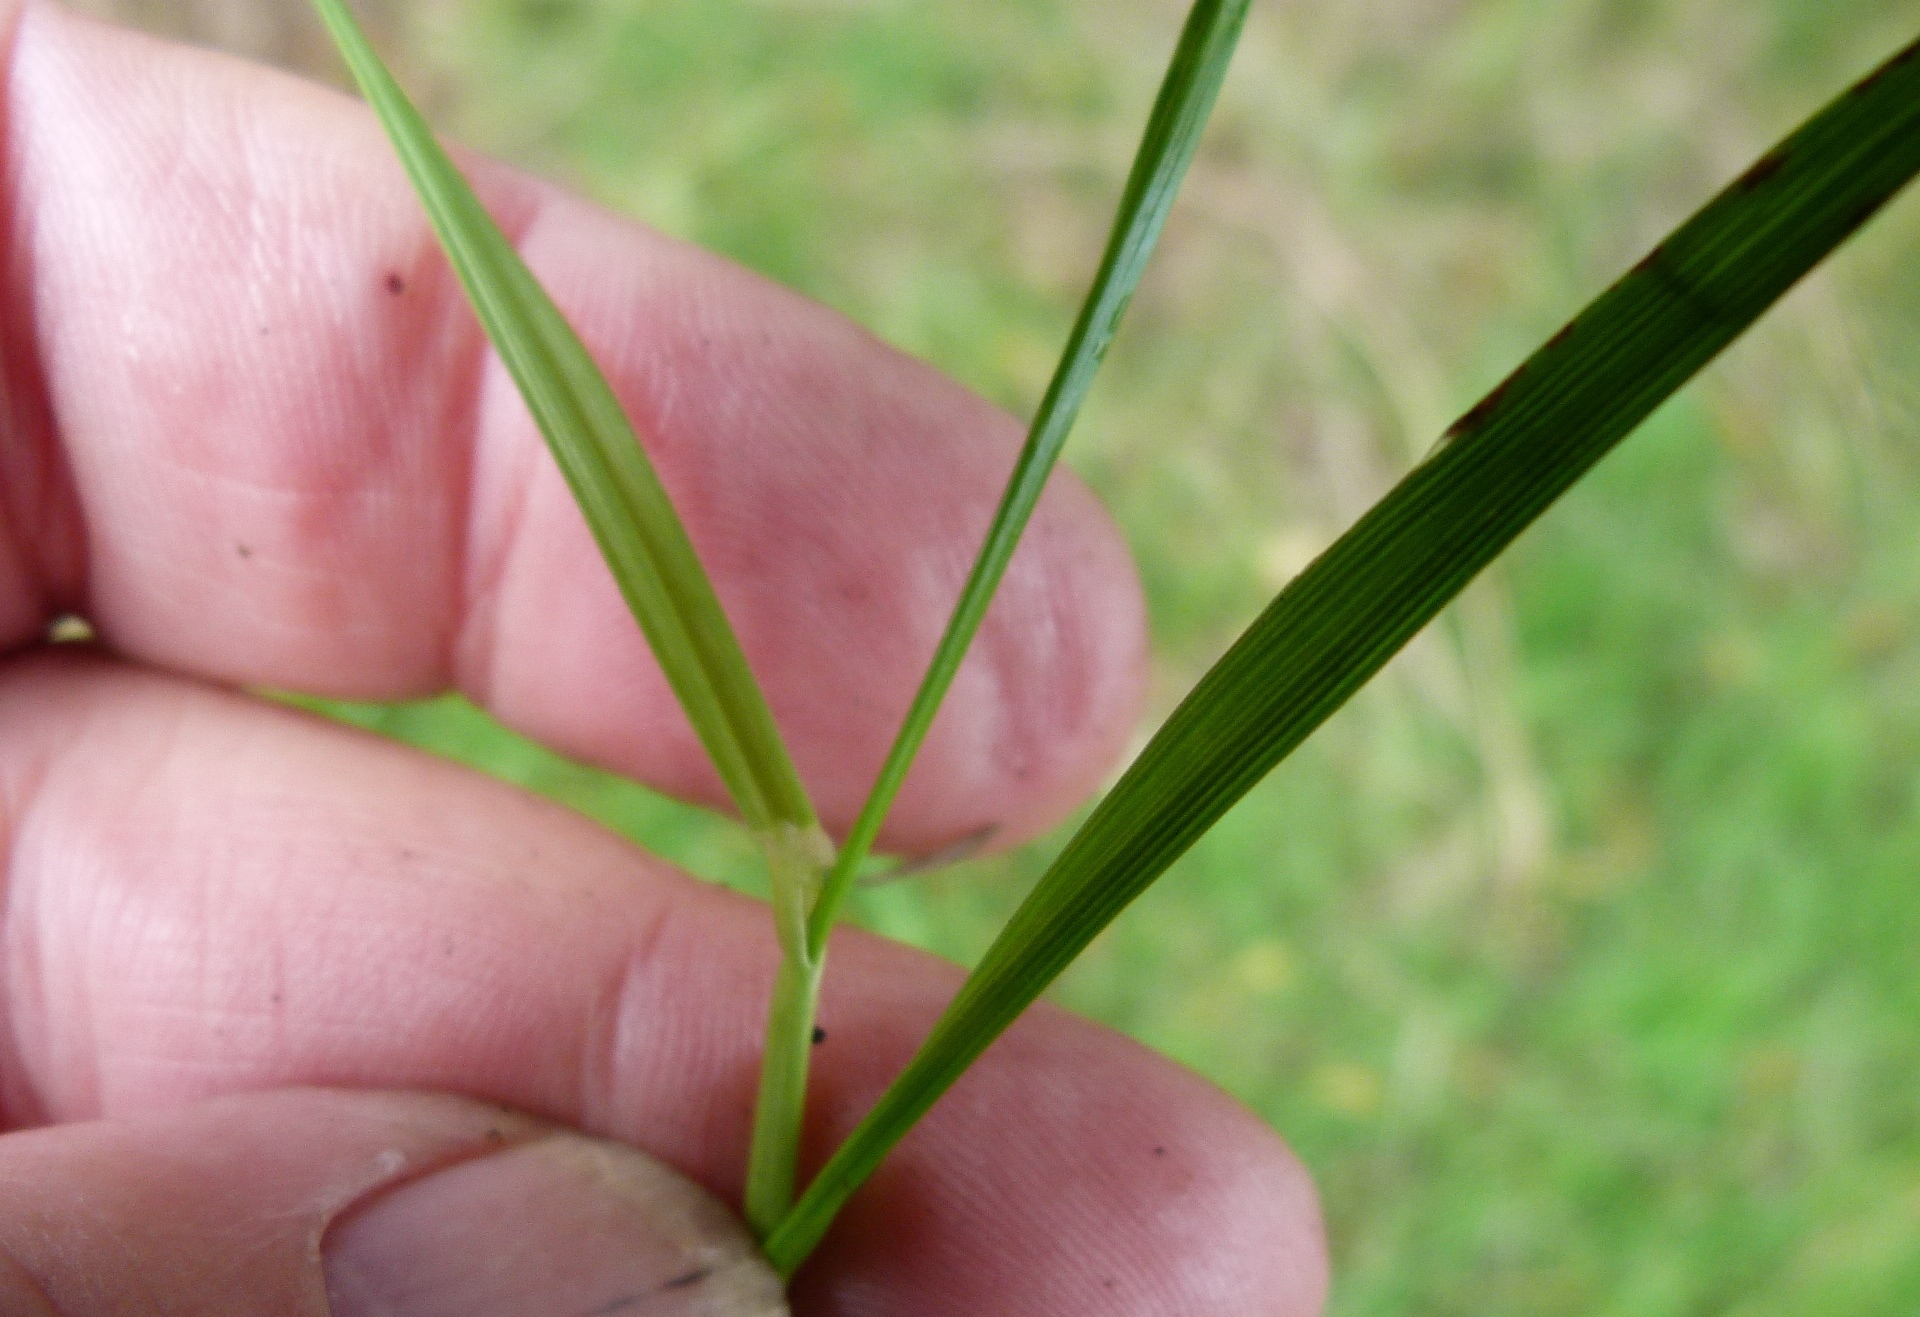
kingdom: Plantae
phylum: Tracheophyta
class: Liliopsida
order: Poales
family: Poaceae
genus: Lolium
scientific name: Lolium perenne
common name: Perennial ryegrass
